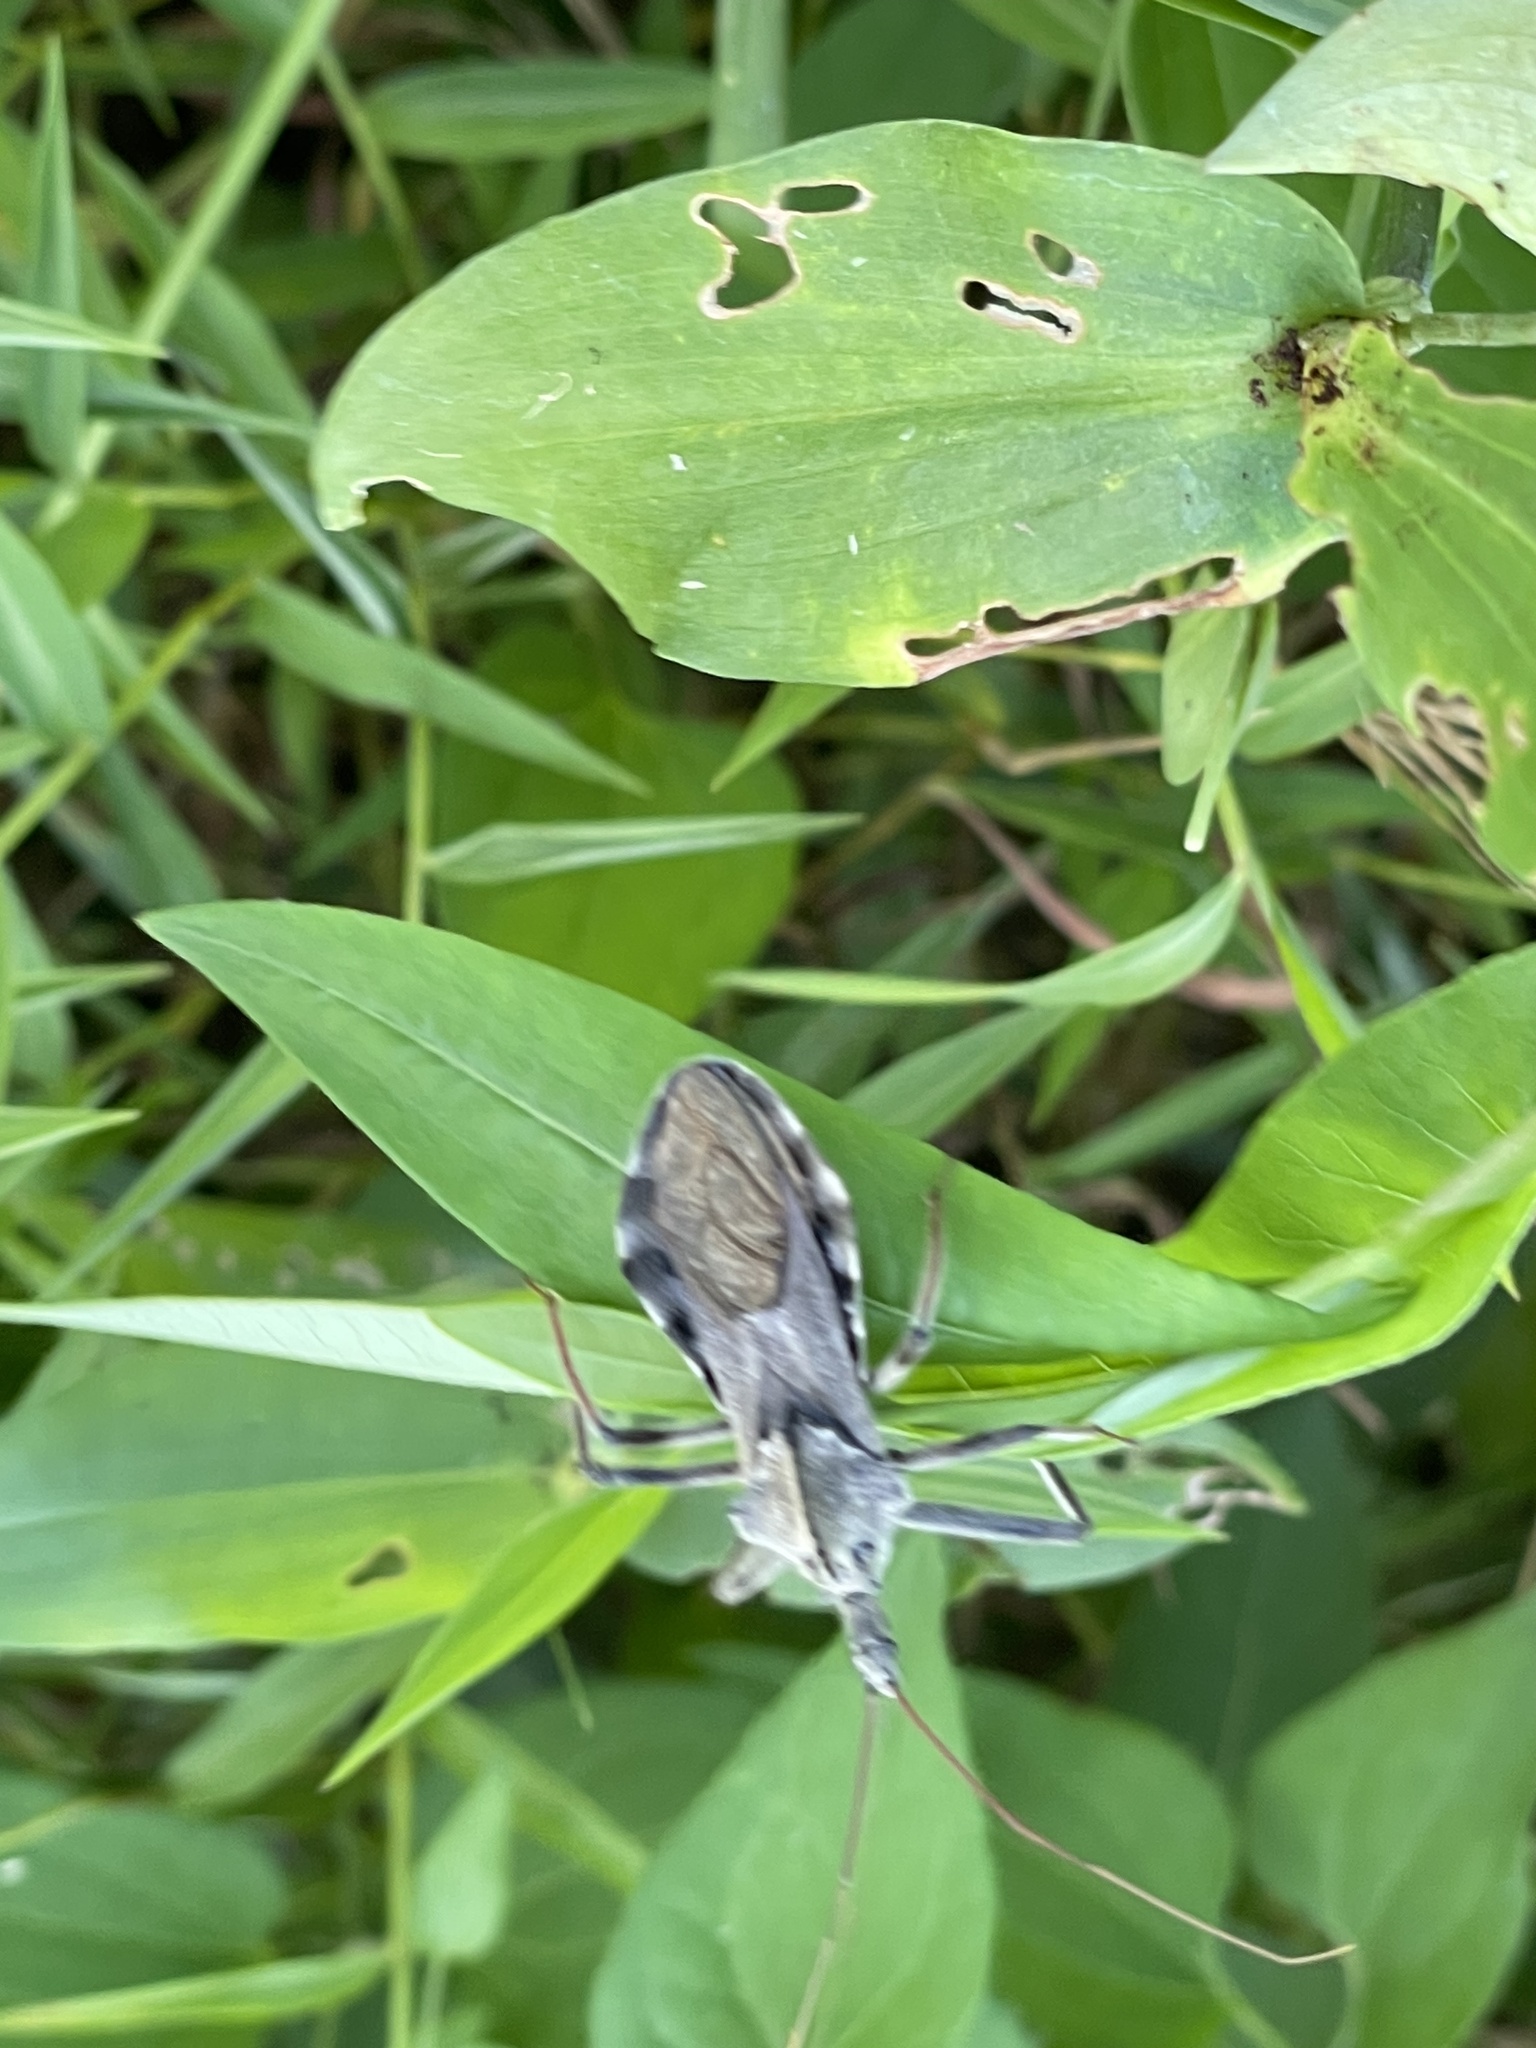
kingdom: Animalia
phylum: Arthropoda
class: Insecta
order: Hemiptera
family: Reduviidae
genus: Arilus
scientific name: Arilus cristatus
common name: North american wheel bug
